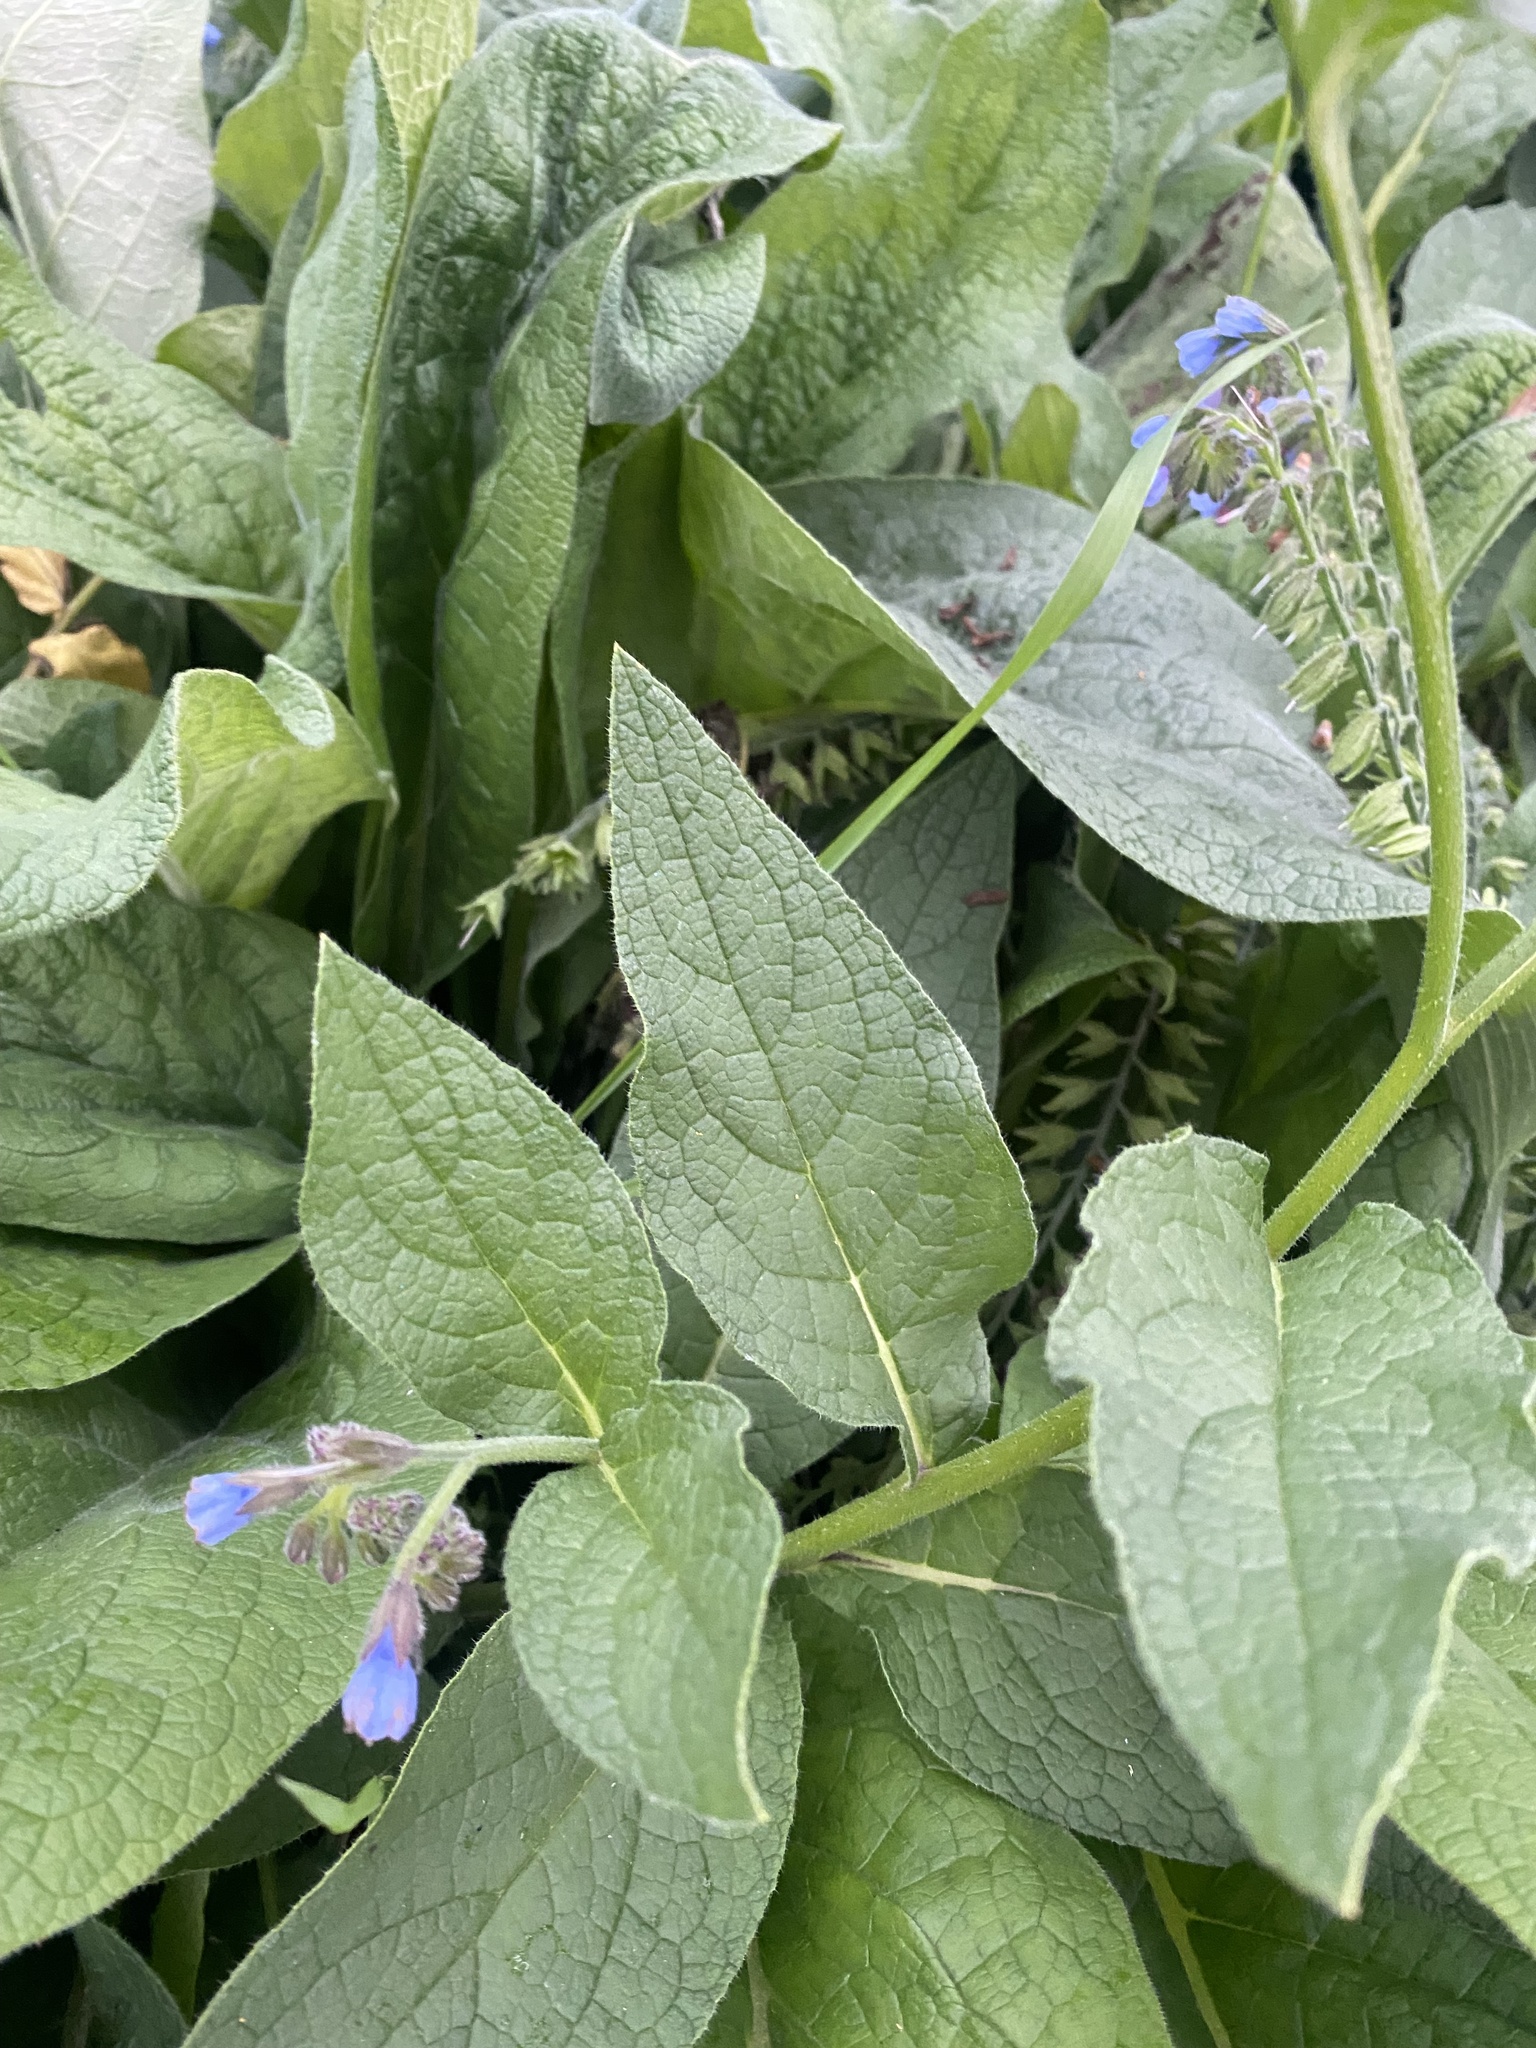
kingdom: Plantae
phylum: Tracheophyta
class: Magnoliopsida
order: Boraginales
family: Boraginaceae
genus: Symphytum
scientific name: Symphytum caucasicum
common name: Caucasian comfrey
